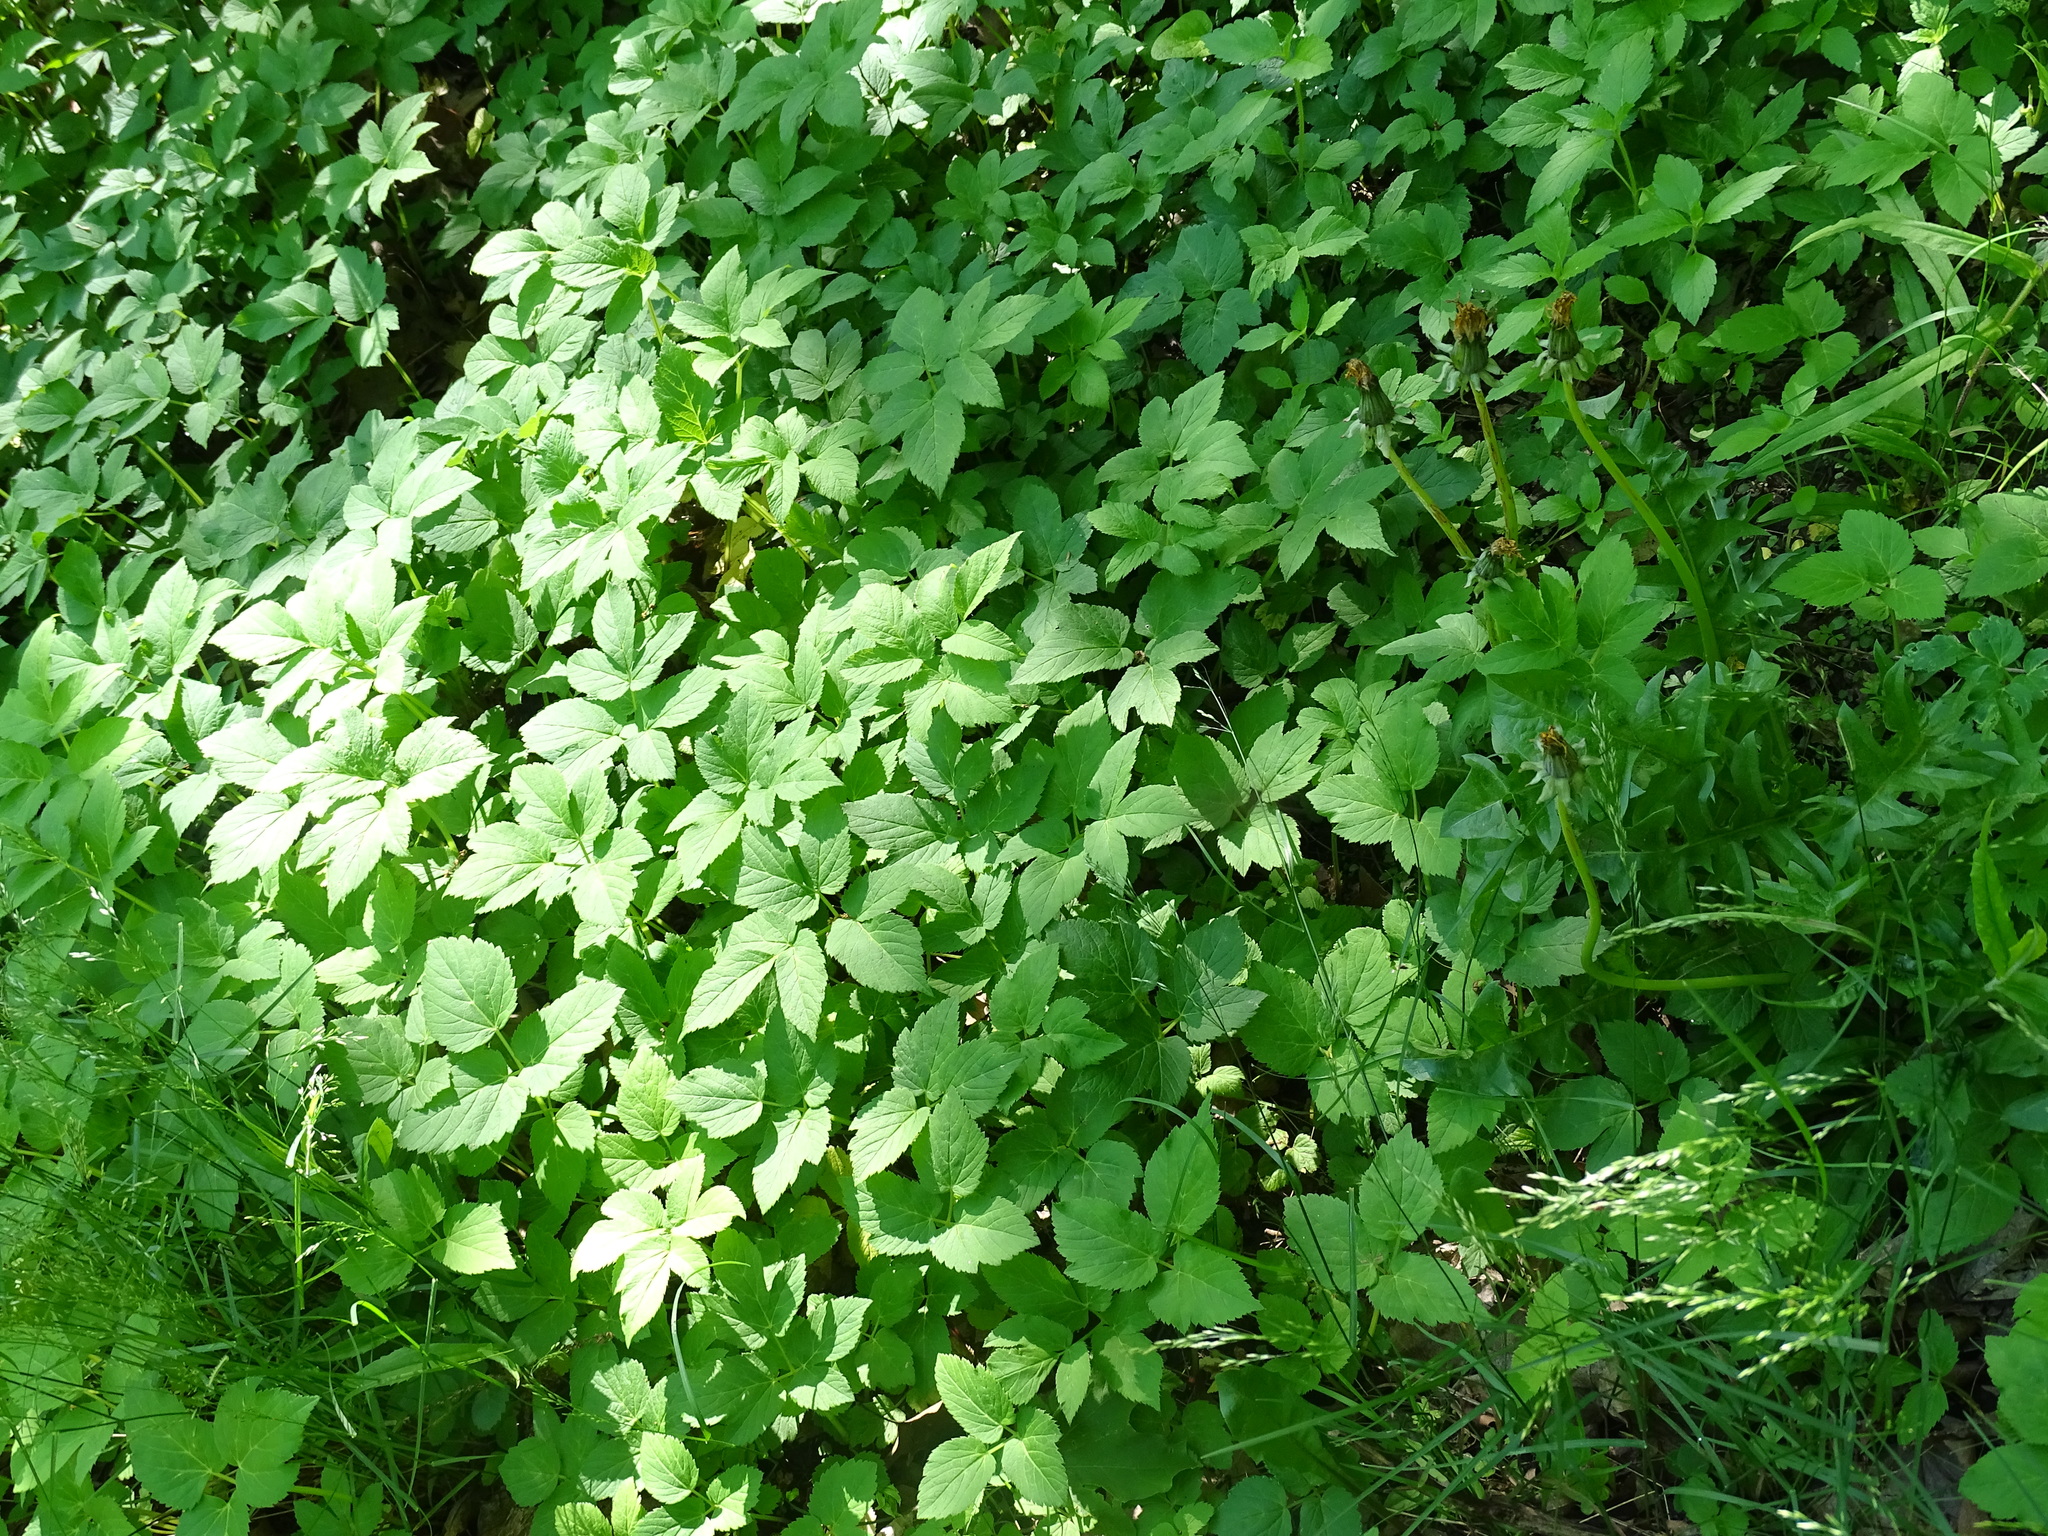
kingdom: Plantae
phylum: Tracheophyta
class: Magnoliopsida
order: Apiales
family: Apiaceae
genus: Aegopodium
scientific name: Aegopodium podagraria
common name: Ground-elder
